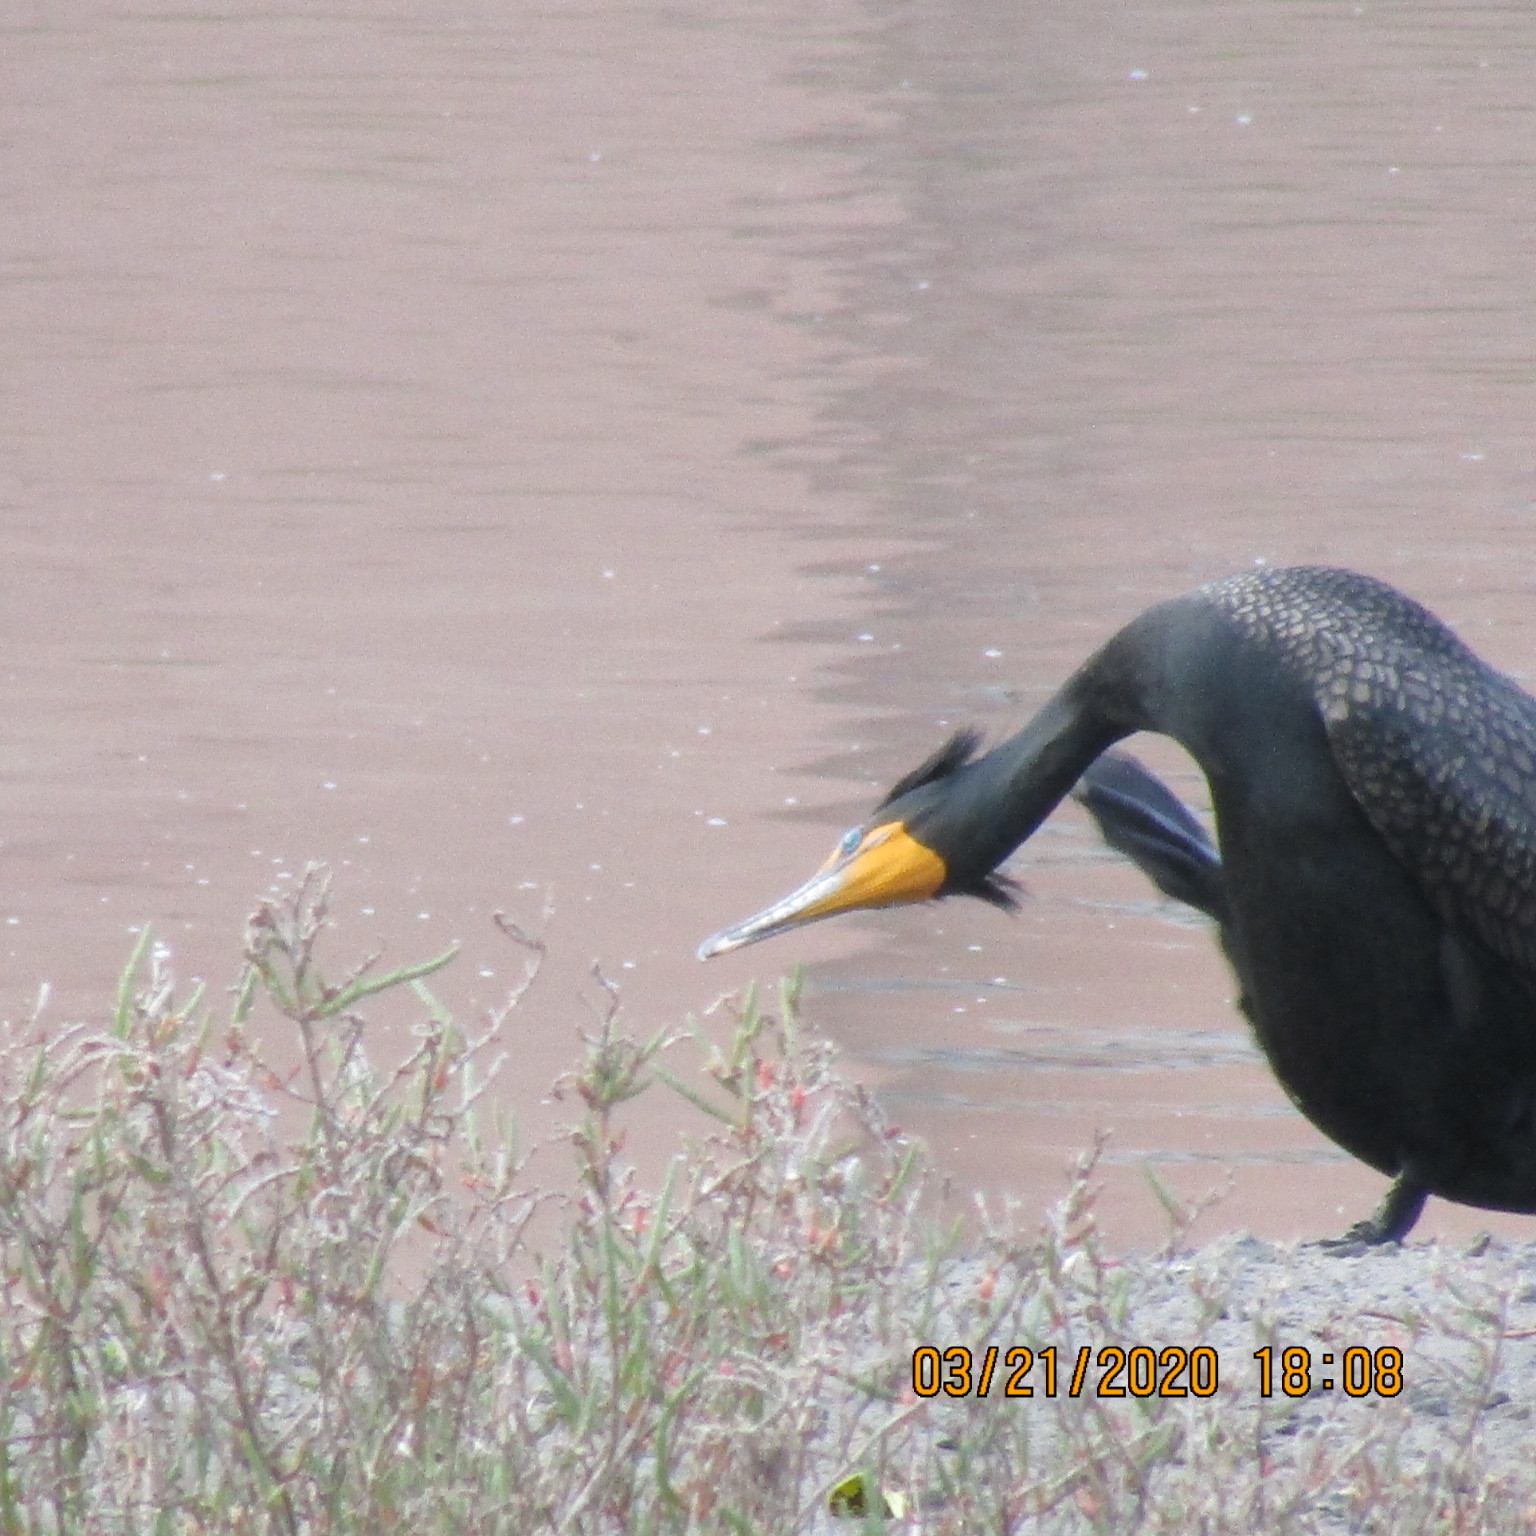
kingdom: Animalia
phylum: Chordata
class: Aves
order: Suliformes
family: Phalacrocoracidae
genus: Phalacrocorax
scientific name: Phalacrocorax auritus
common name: Double-crested cormorant
